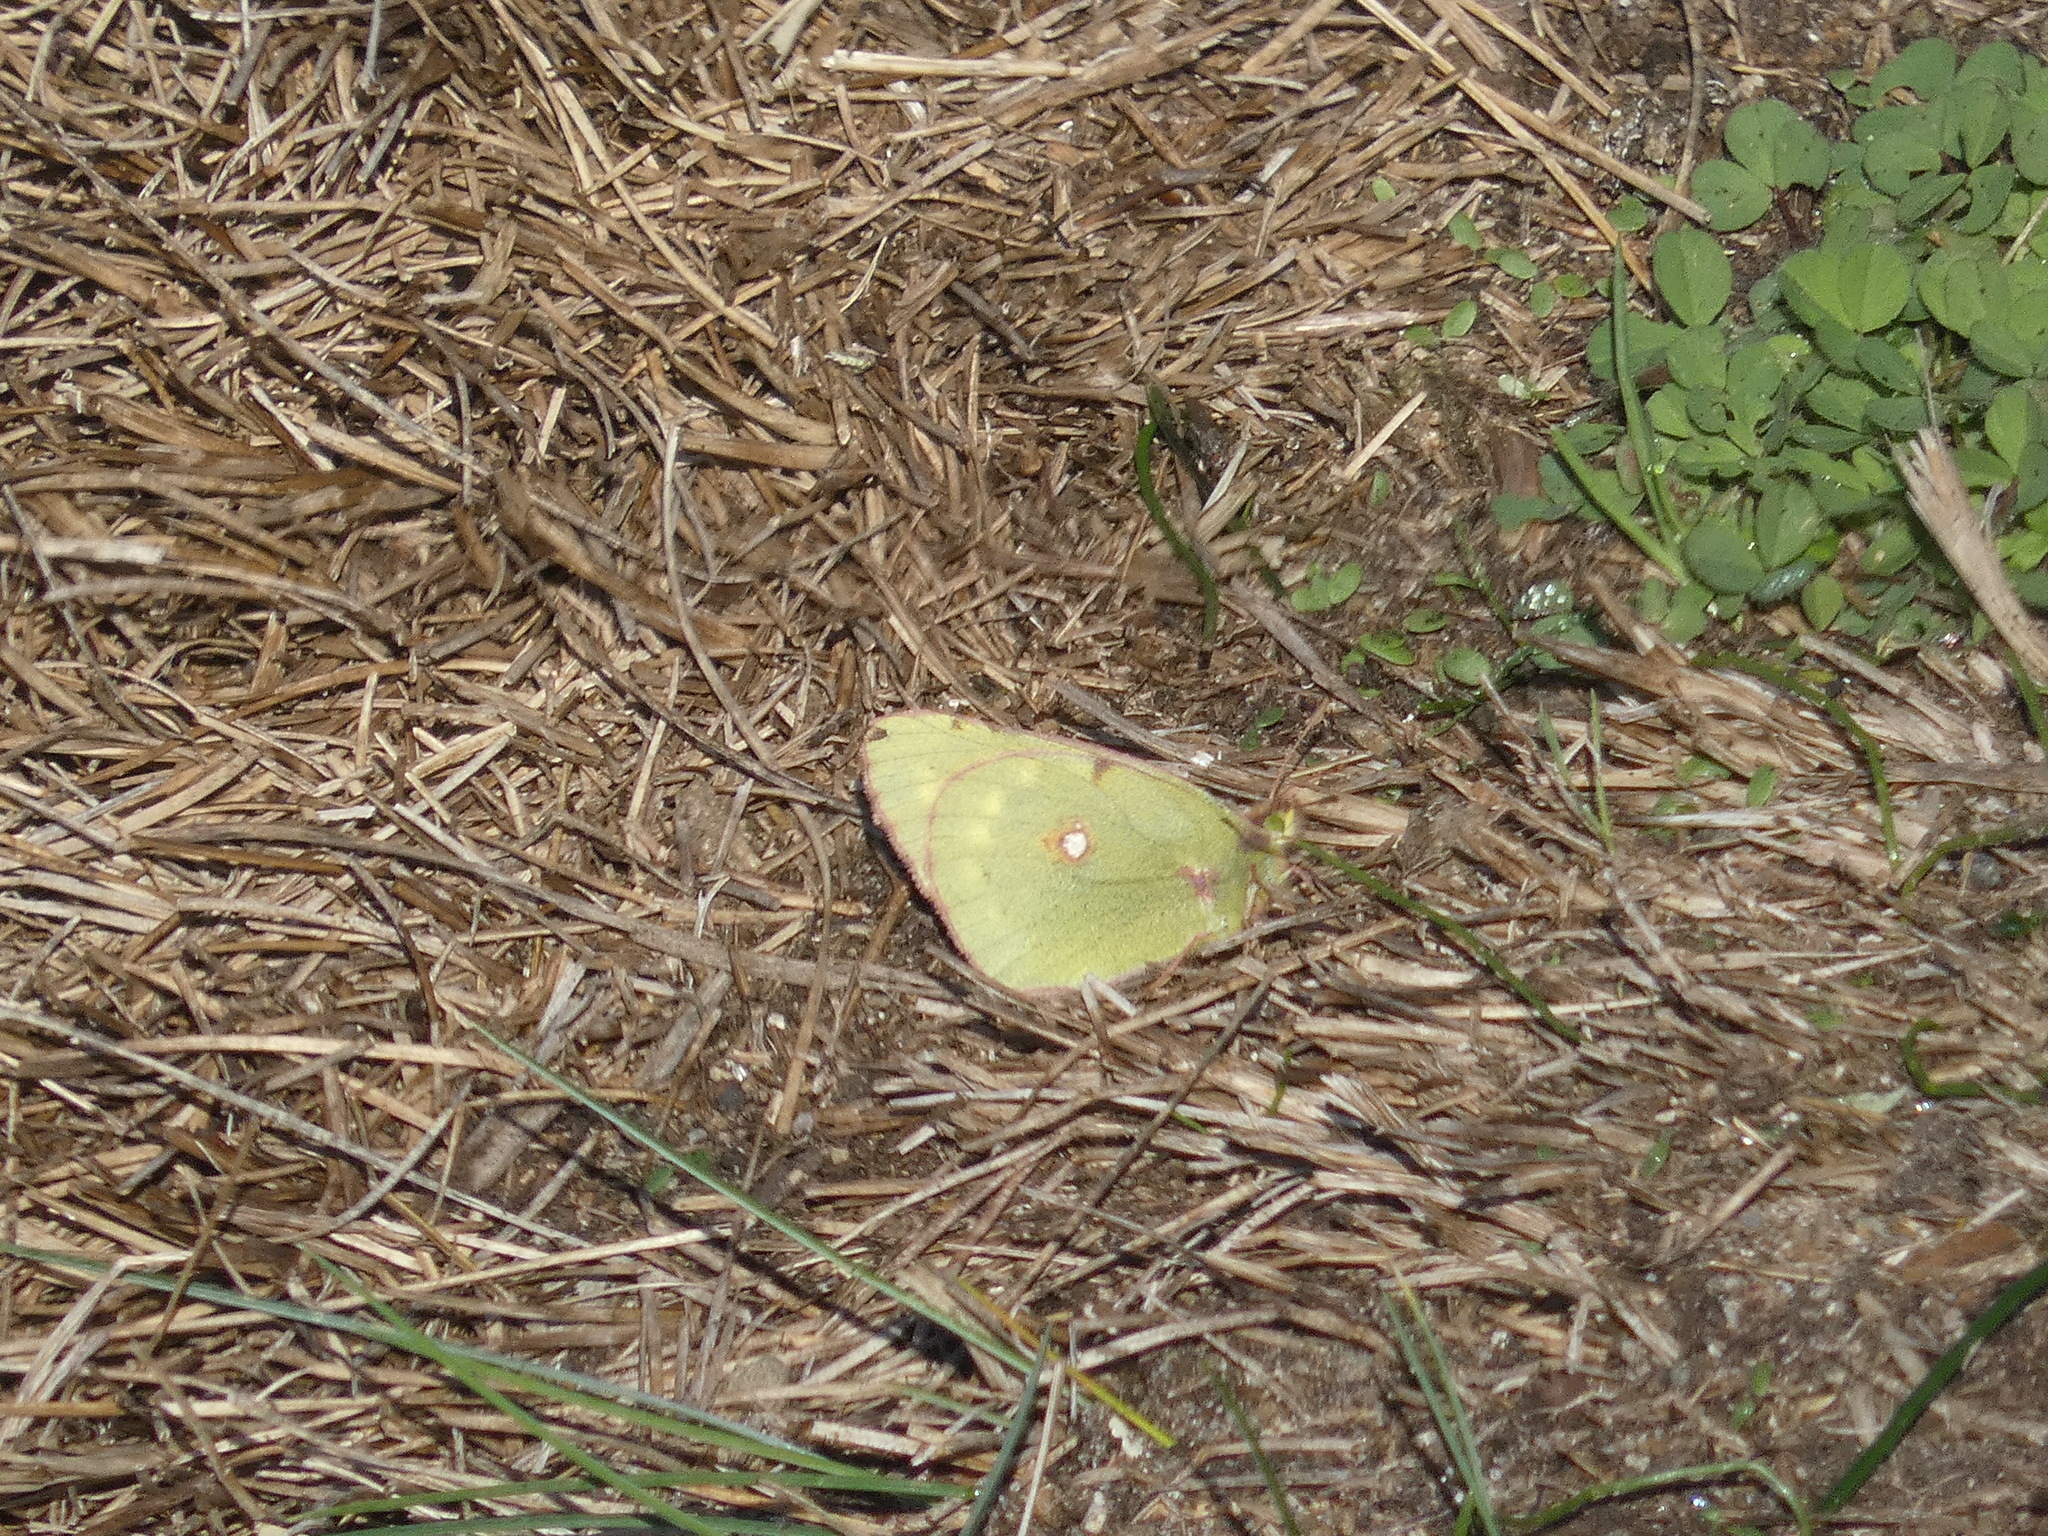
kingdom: Animalia
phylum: Arthropoda
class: Insecta
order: Lepidoptera
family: Pieridae
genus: Colias
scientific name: Colias croceus
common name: Clouded yellow
